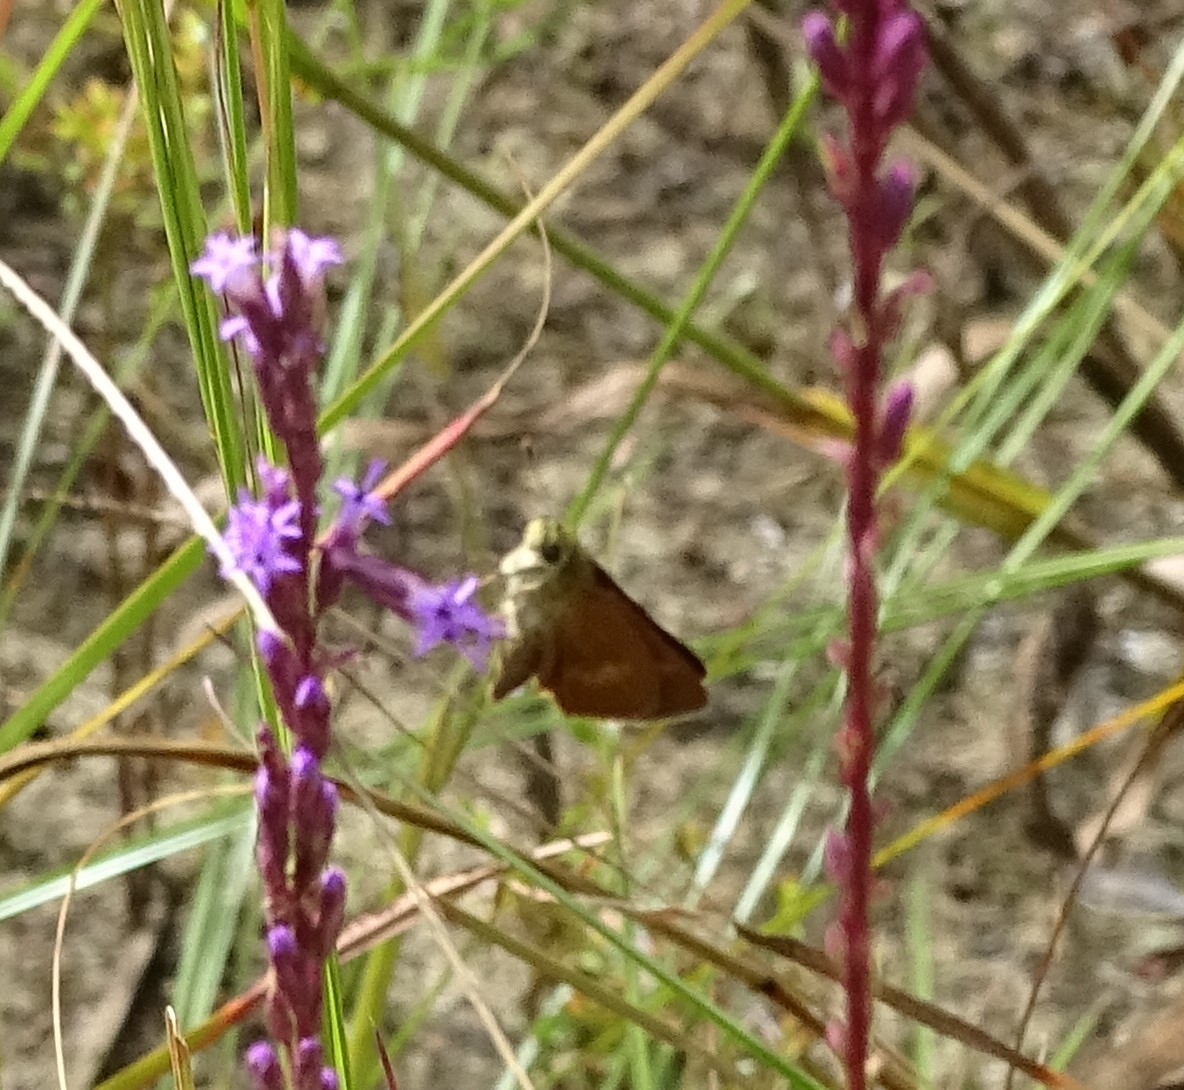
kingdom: Animalia
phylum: Arthropoda
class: Insecta
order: Lepidoptera
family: Hesperiidae
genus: Polites
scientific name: Polites otho
